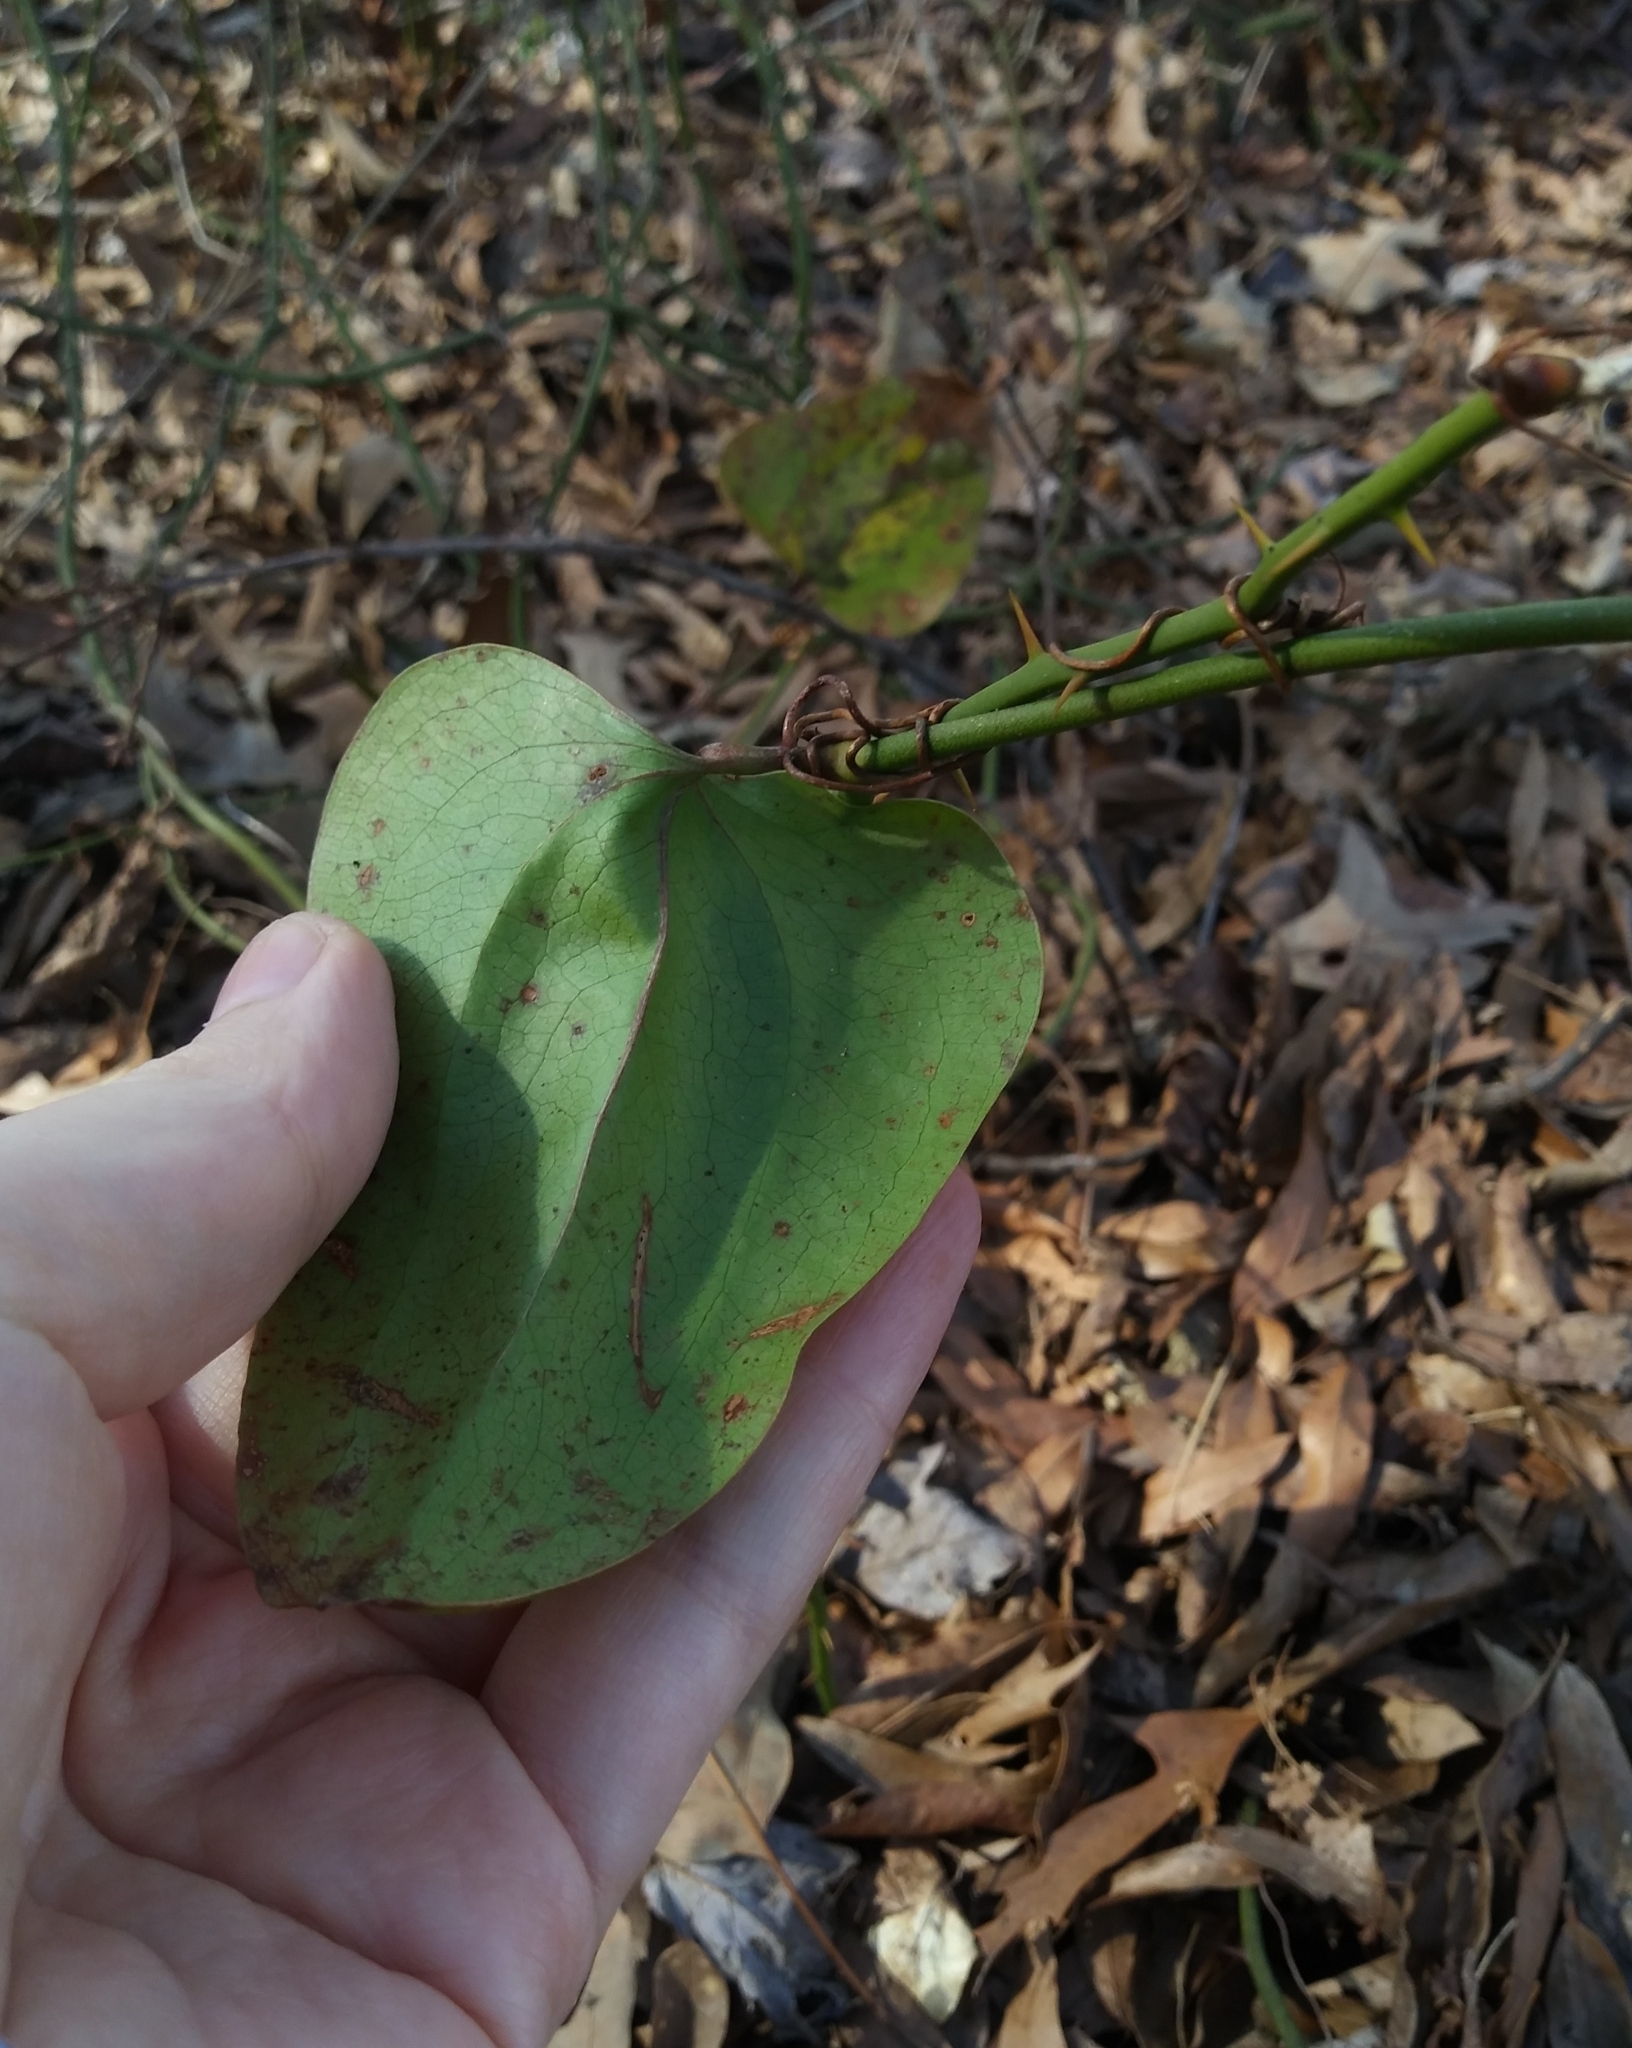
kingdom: Plantae
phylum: Tracheophyta
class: Liliopsida
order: Liliales
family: Smilacaceae
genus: Smilax
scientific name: Smilax rotundifolia
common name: Bullbriar
